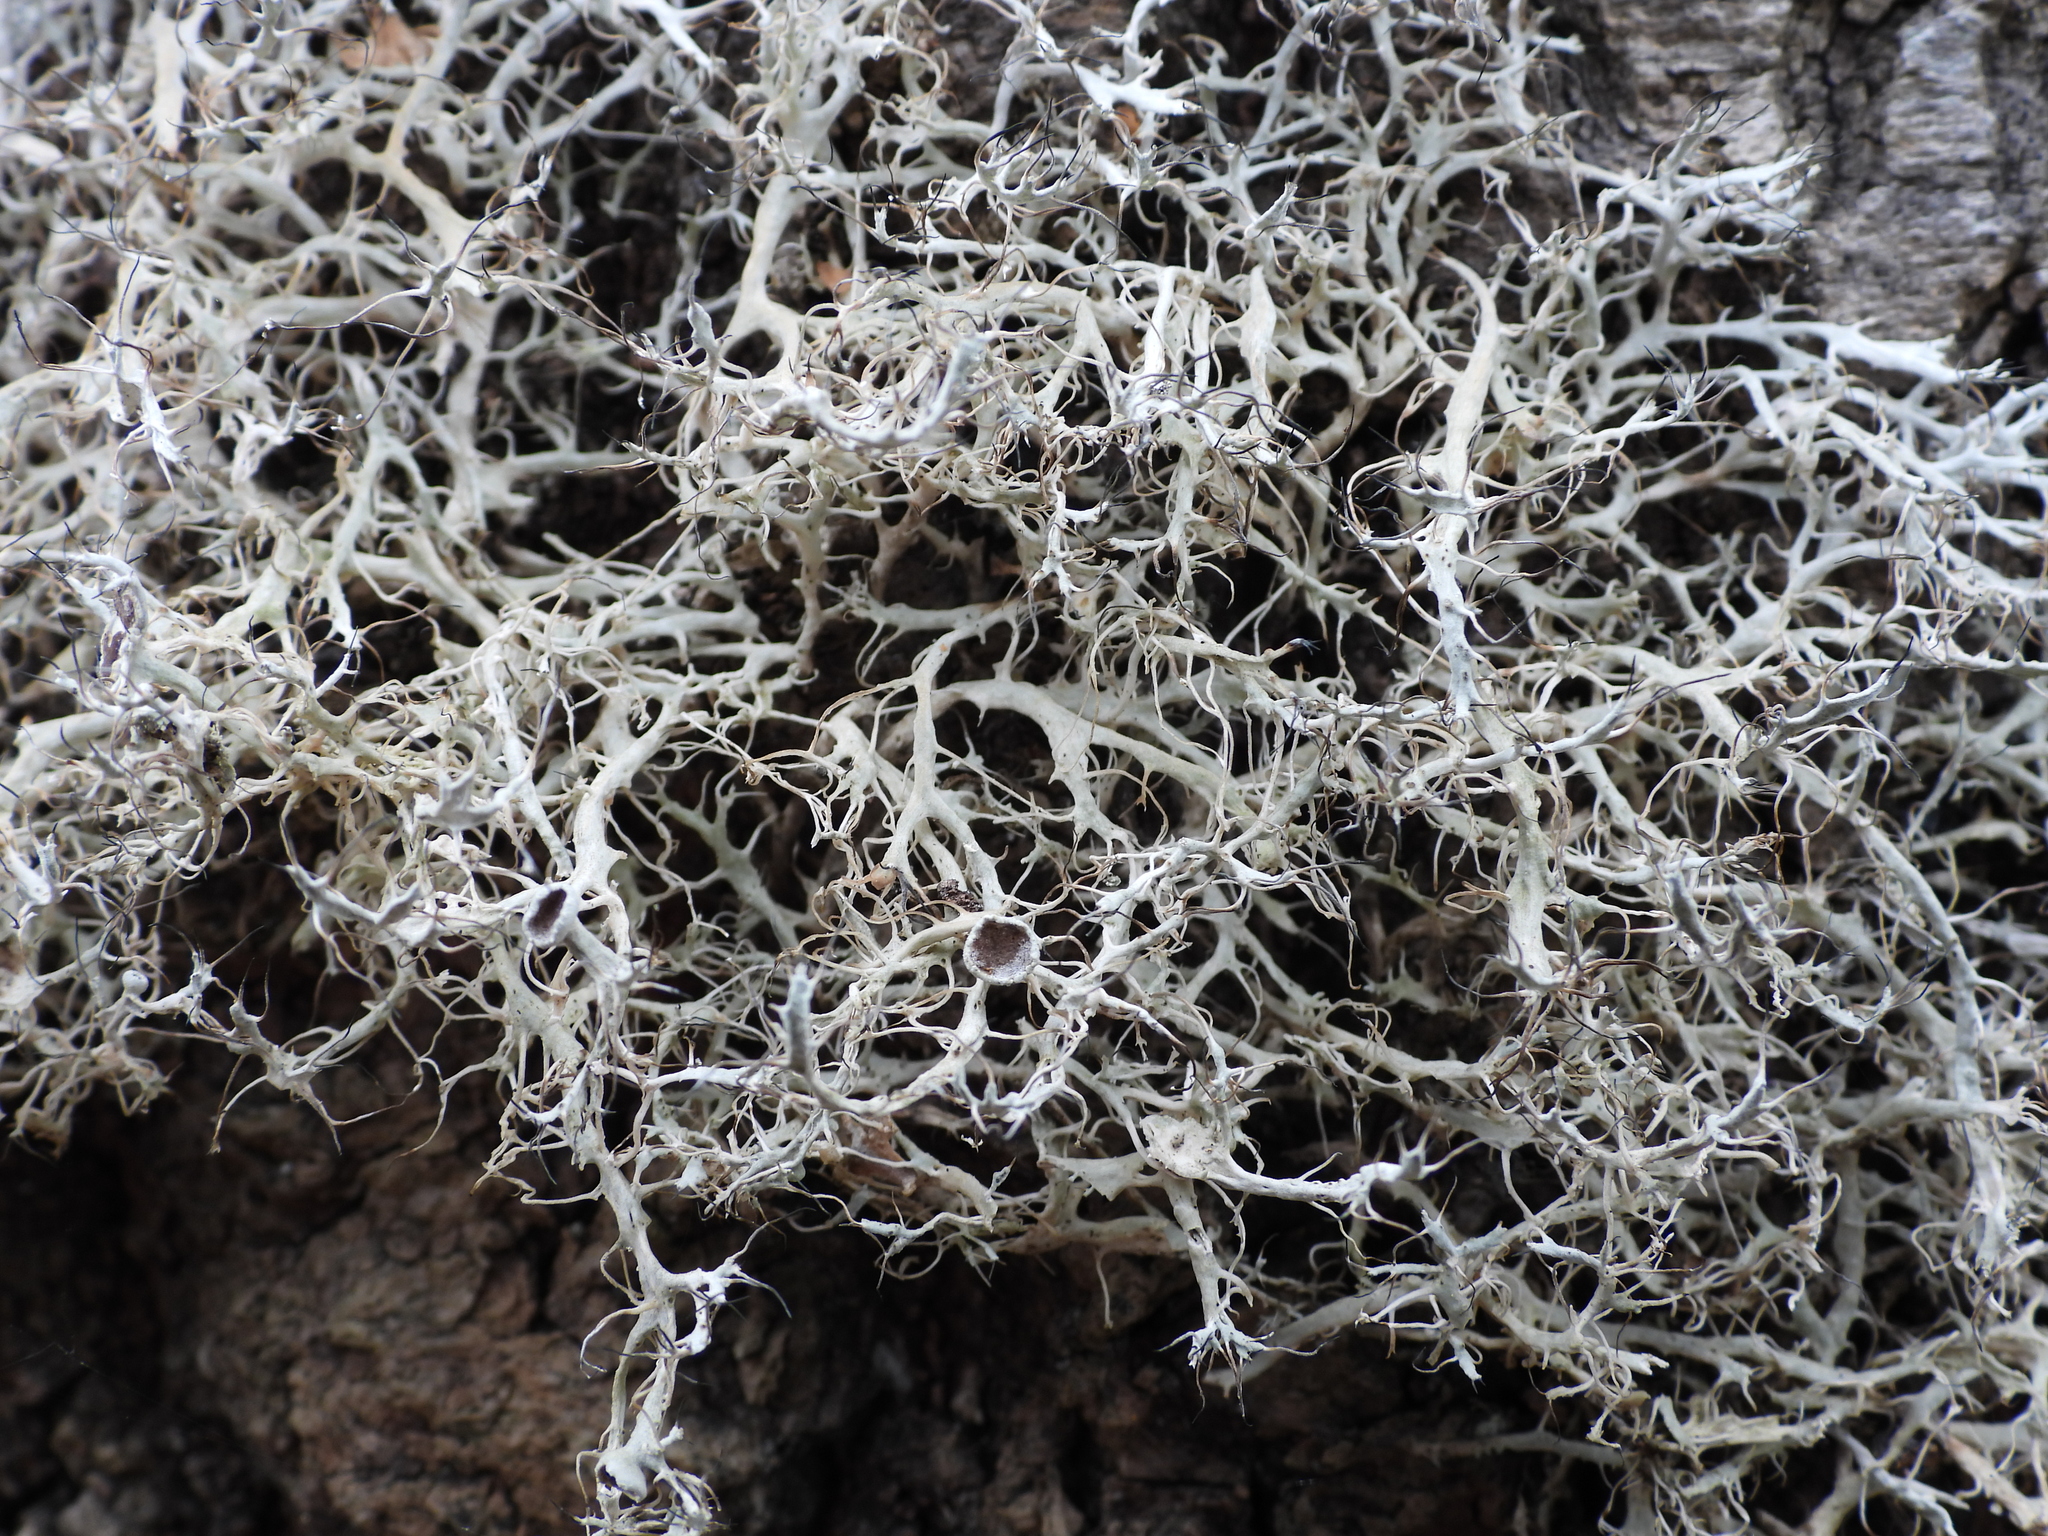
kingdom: Fungi
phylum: Ascomycota
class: Lecanoromycetes
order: Caliciales
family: Physciaceae
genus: Anaptychia
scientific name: Anaptychia ciliaris
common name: Great ciliated lichen
